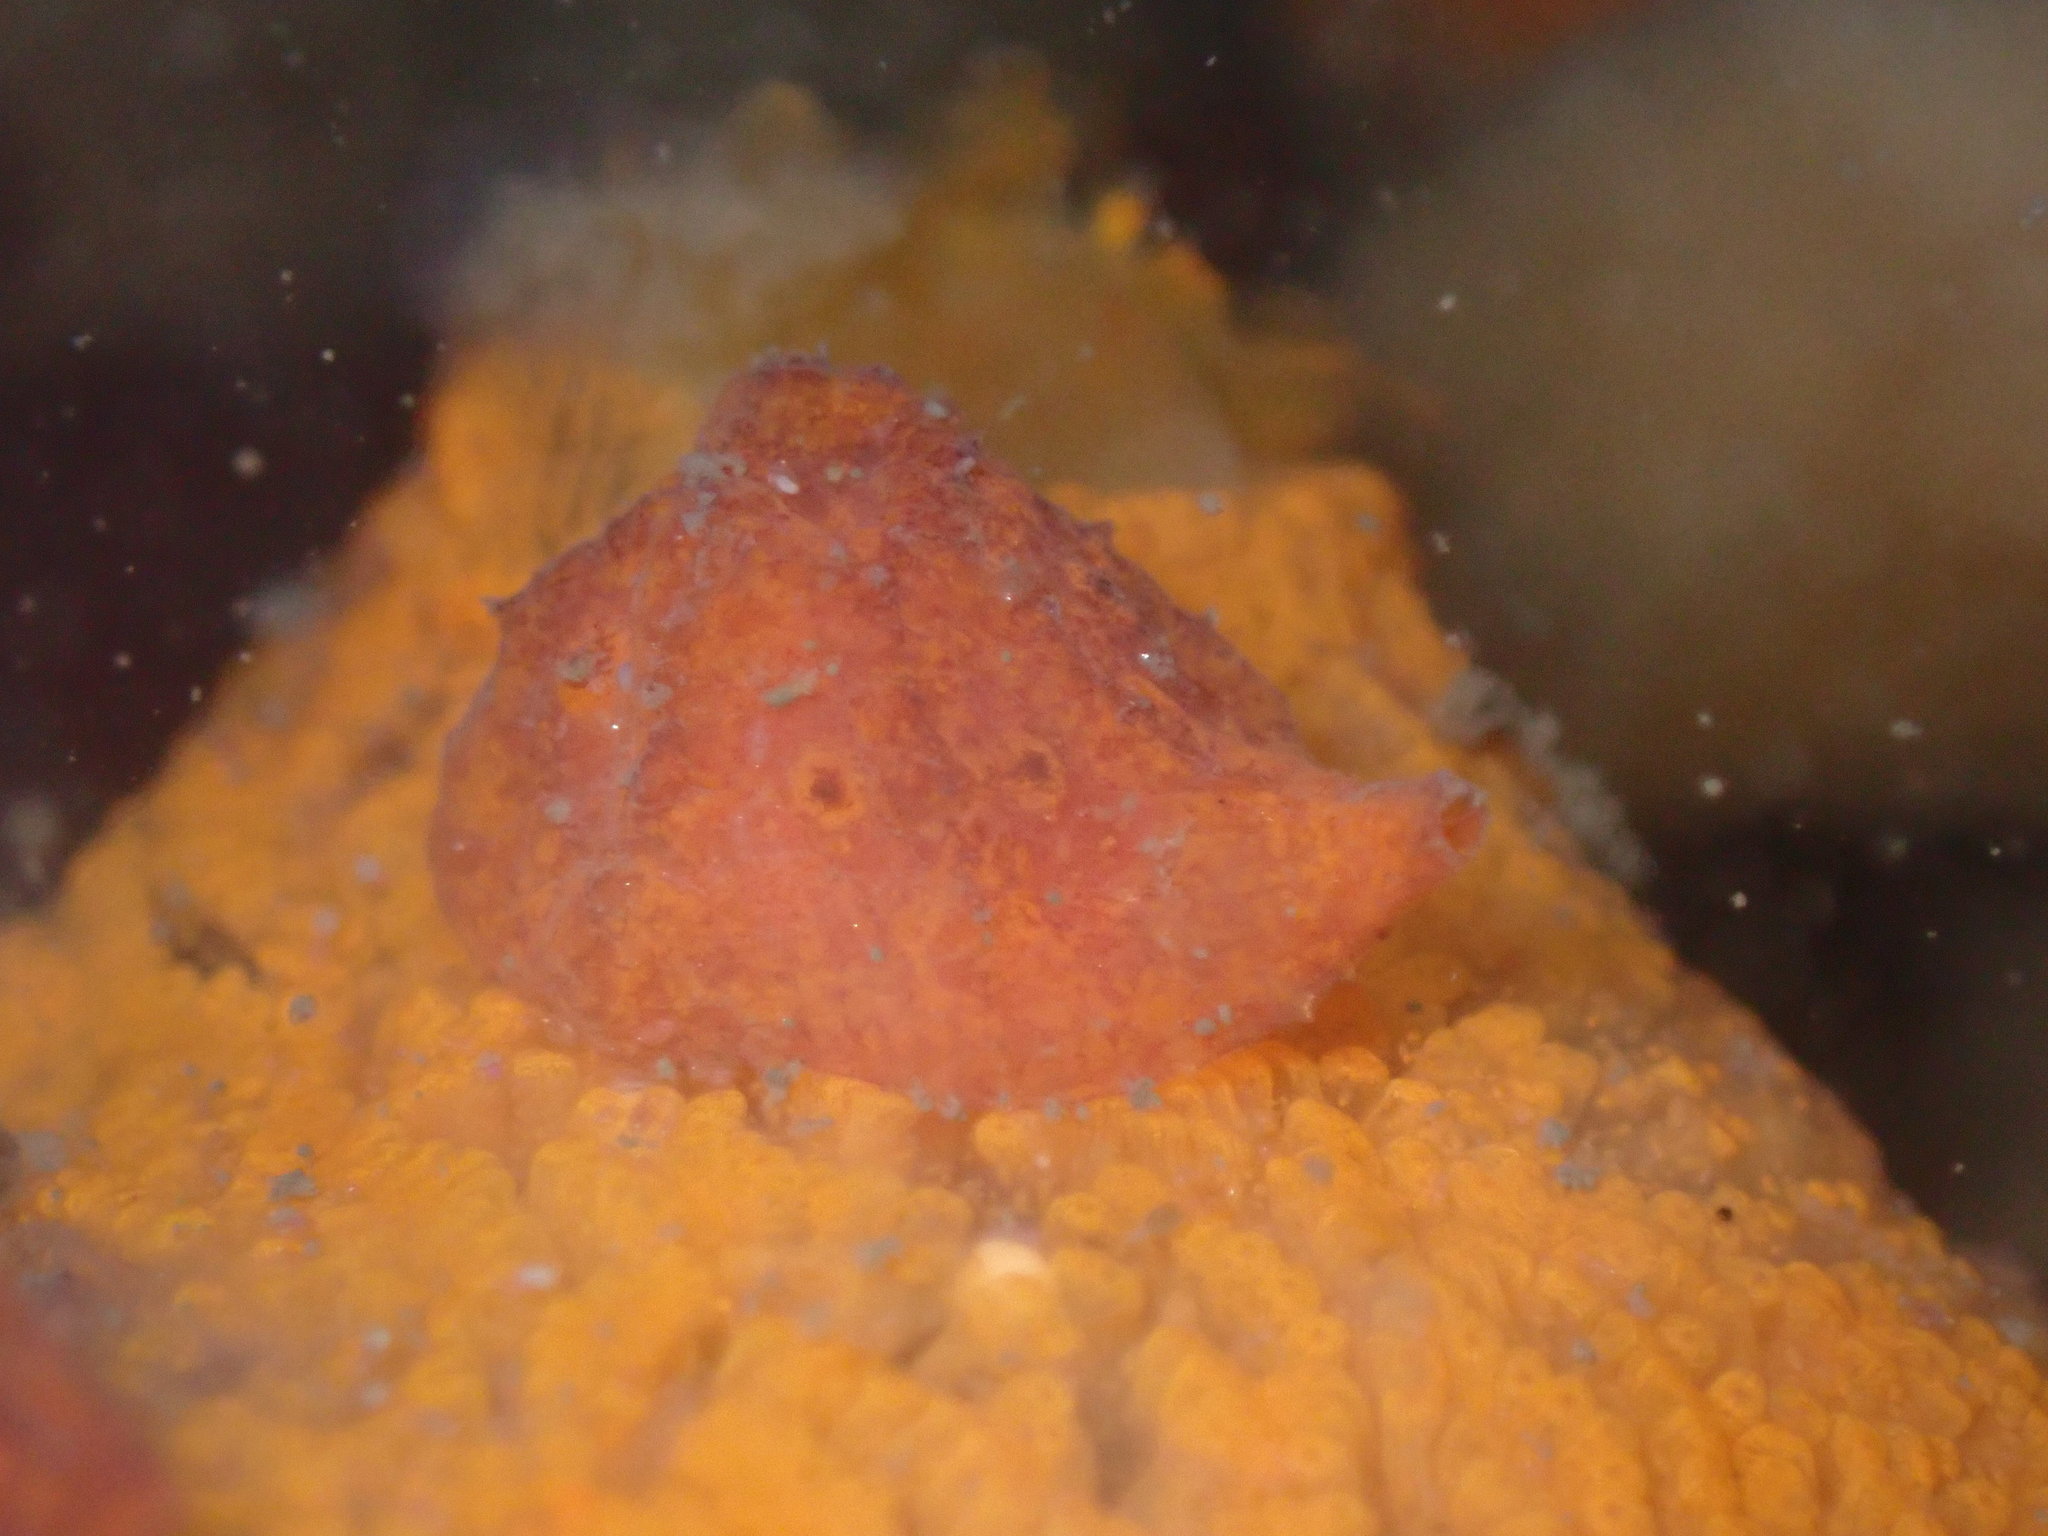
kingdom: Animalia
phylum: Mollusca
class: Gastropoda
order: Littorinimorpha
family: Velutinidae
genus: Hainotis
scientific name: Hainotis sharonae
